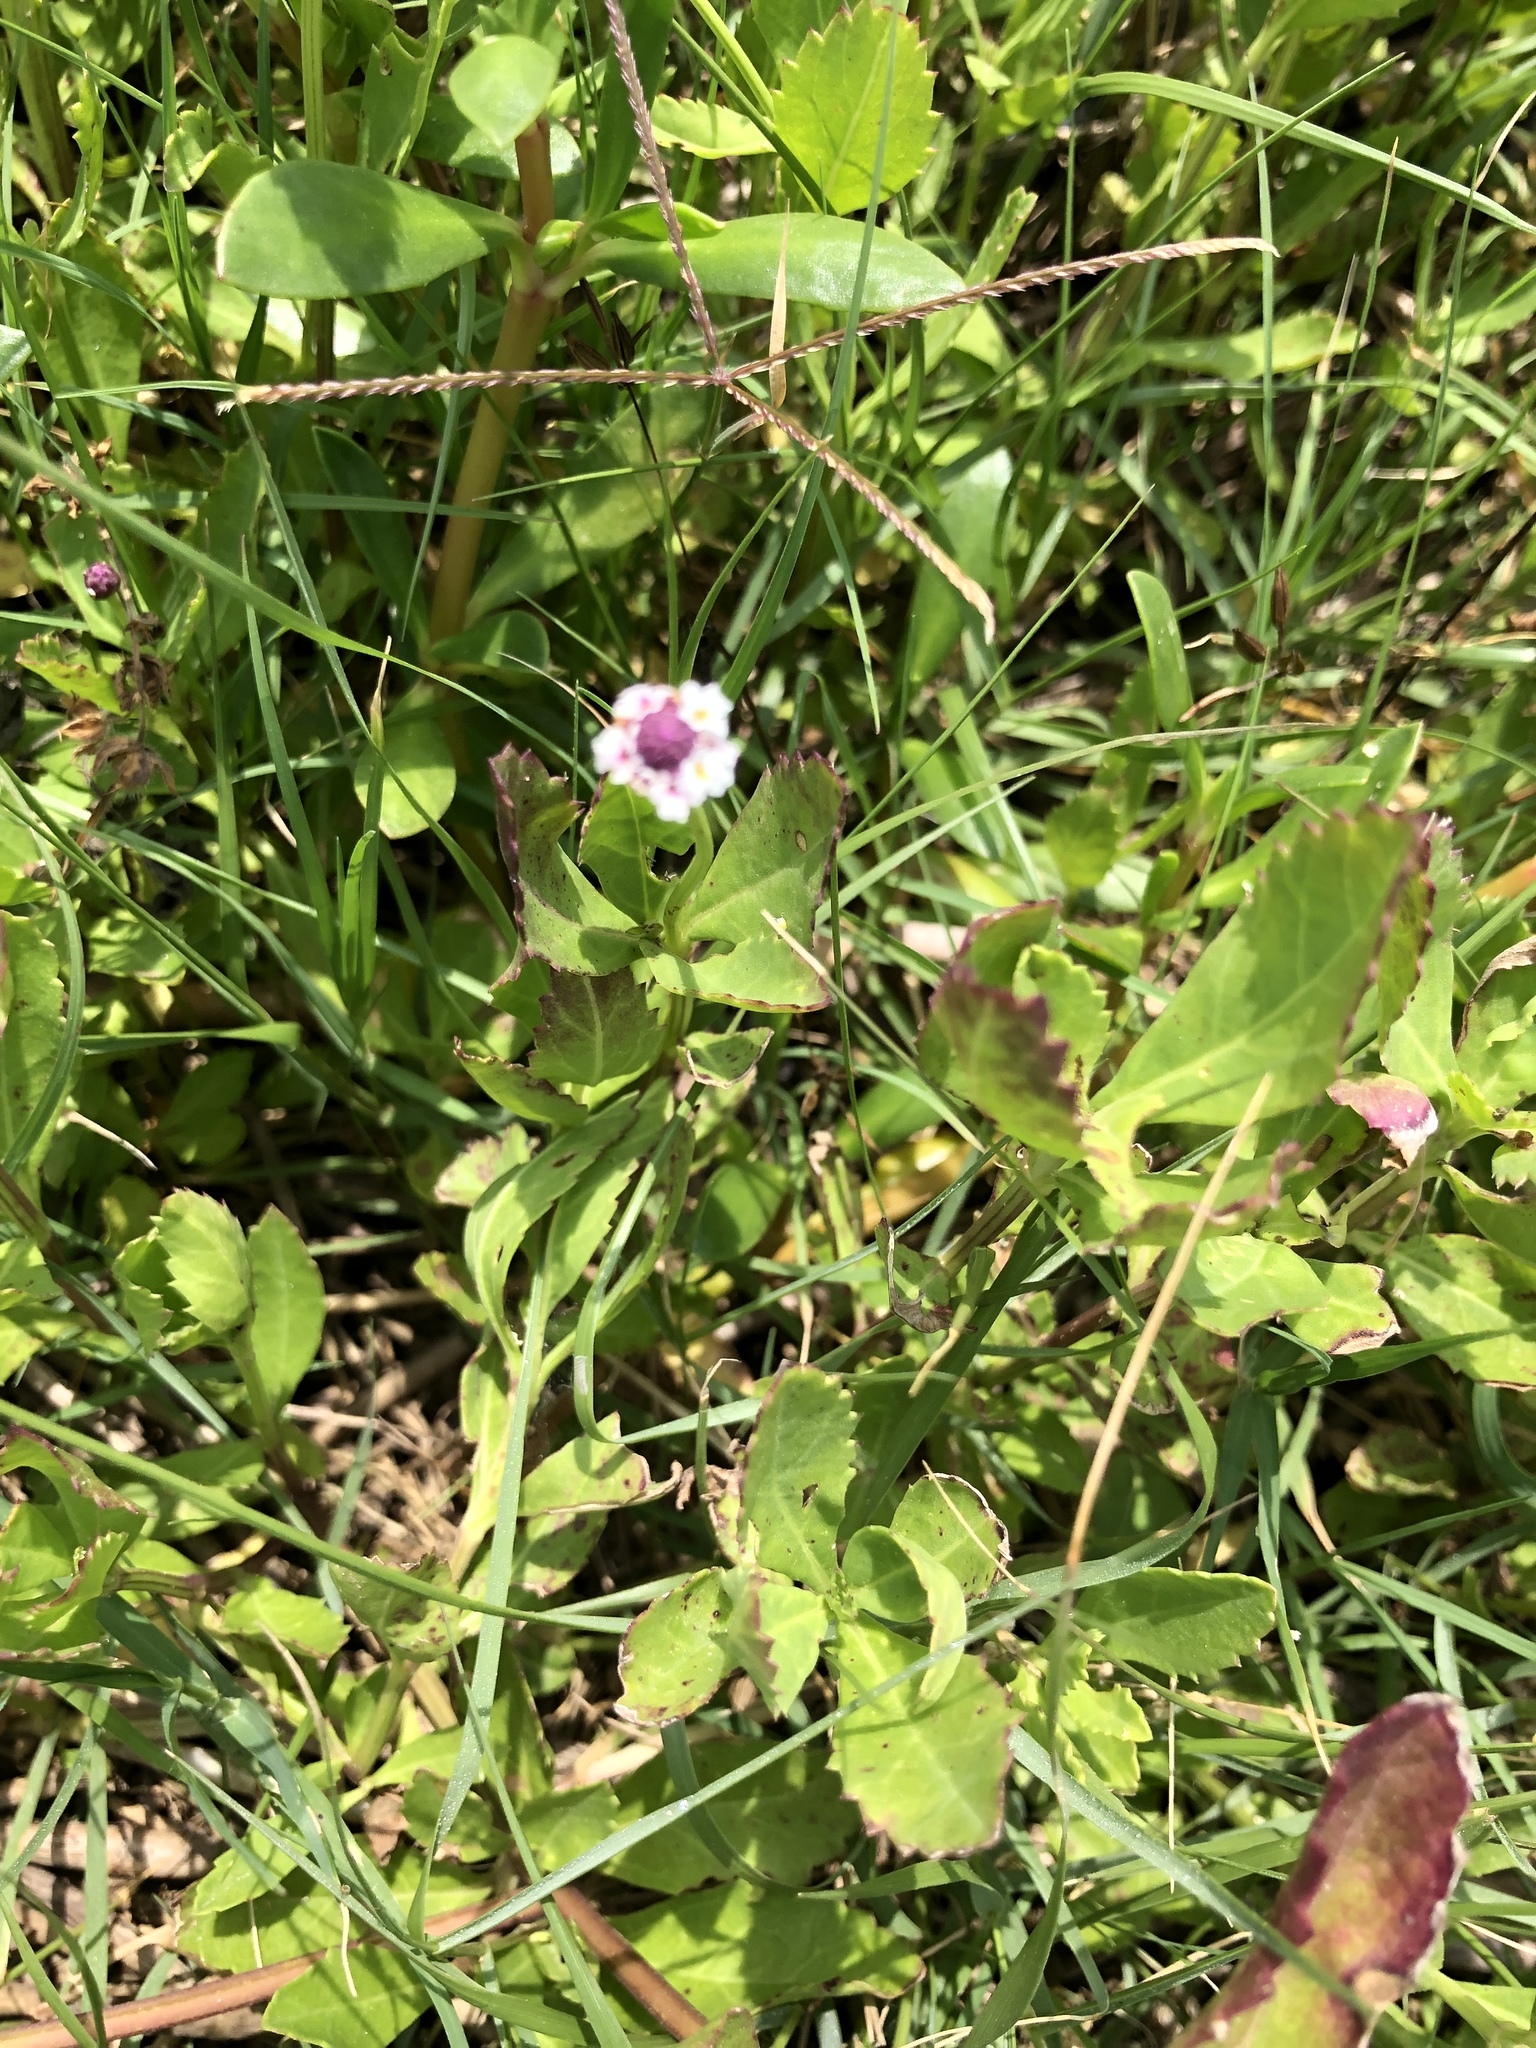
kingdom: Plantae
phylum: Tracheophyta
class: Magnoliopsida
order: Lamiales
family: Verbenaceae
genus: Phyla
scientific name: Phyla nodiflora
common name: Frogfruit
